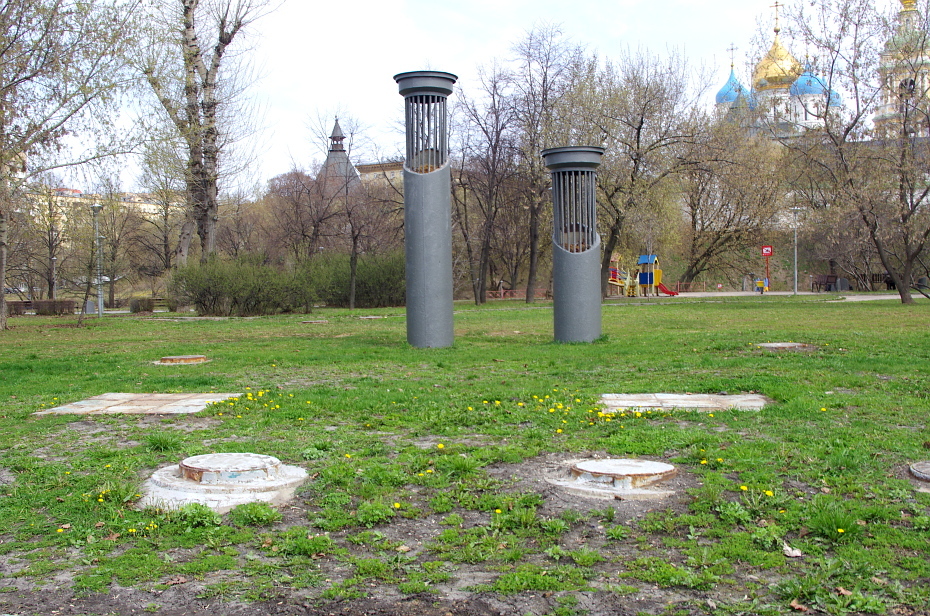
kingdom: Plantae
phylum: Tracheophyta
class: Magnoliopsida
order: Asterales
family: Asteraceae
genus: Taraxacum
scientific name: Taraxacum officinale
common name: Common dandelion
